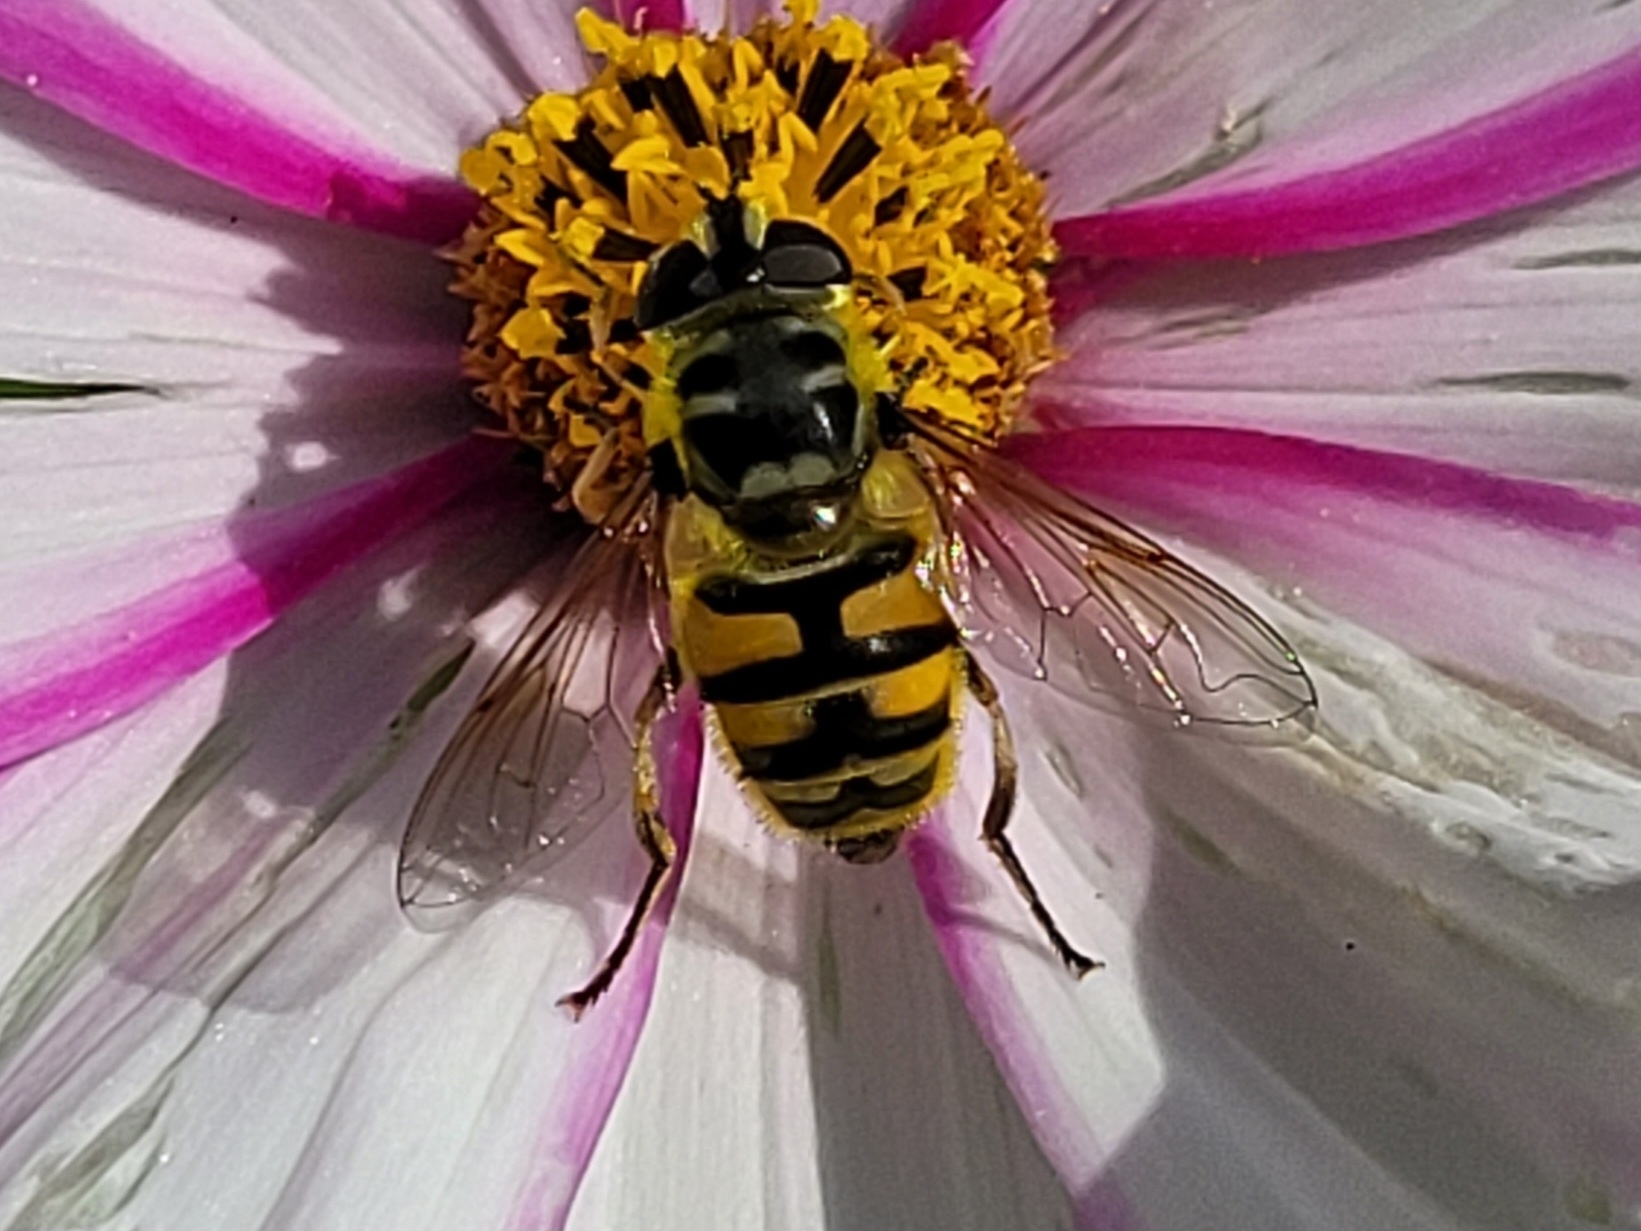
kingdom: Animalia
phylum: Arthropoda
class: Insecta
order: Diptera
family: Syrphidae
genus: Myathropa
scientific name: Myathropa florea
